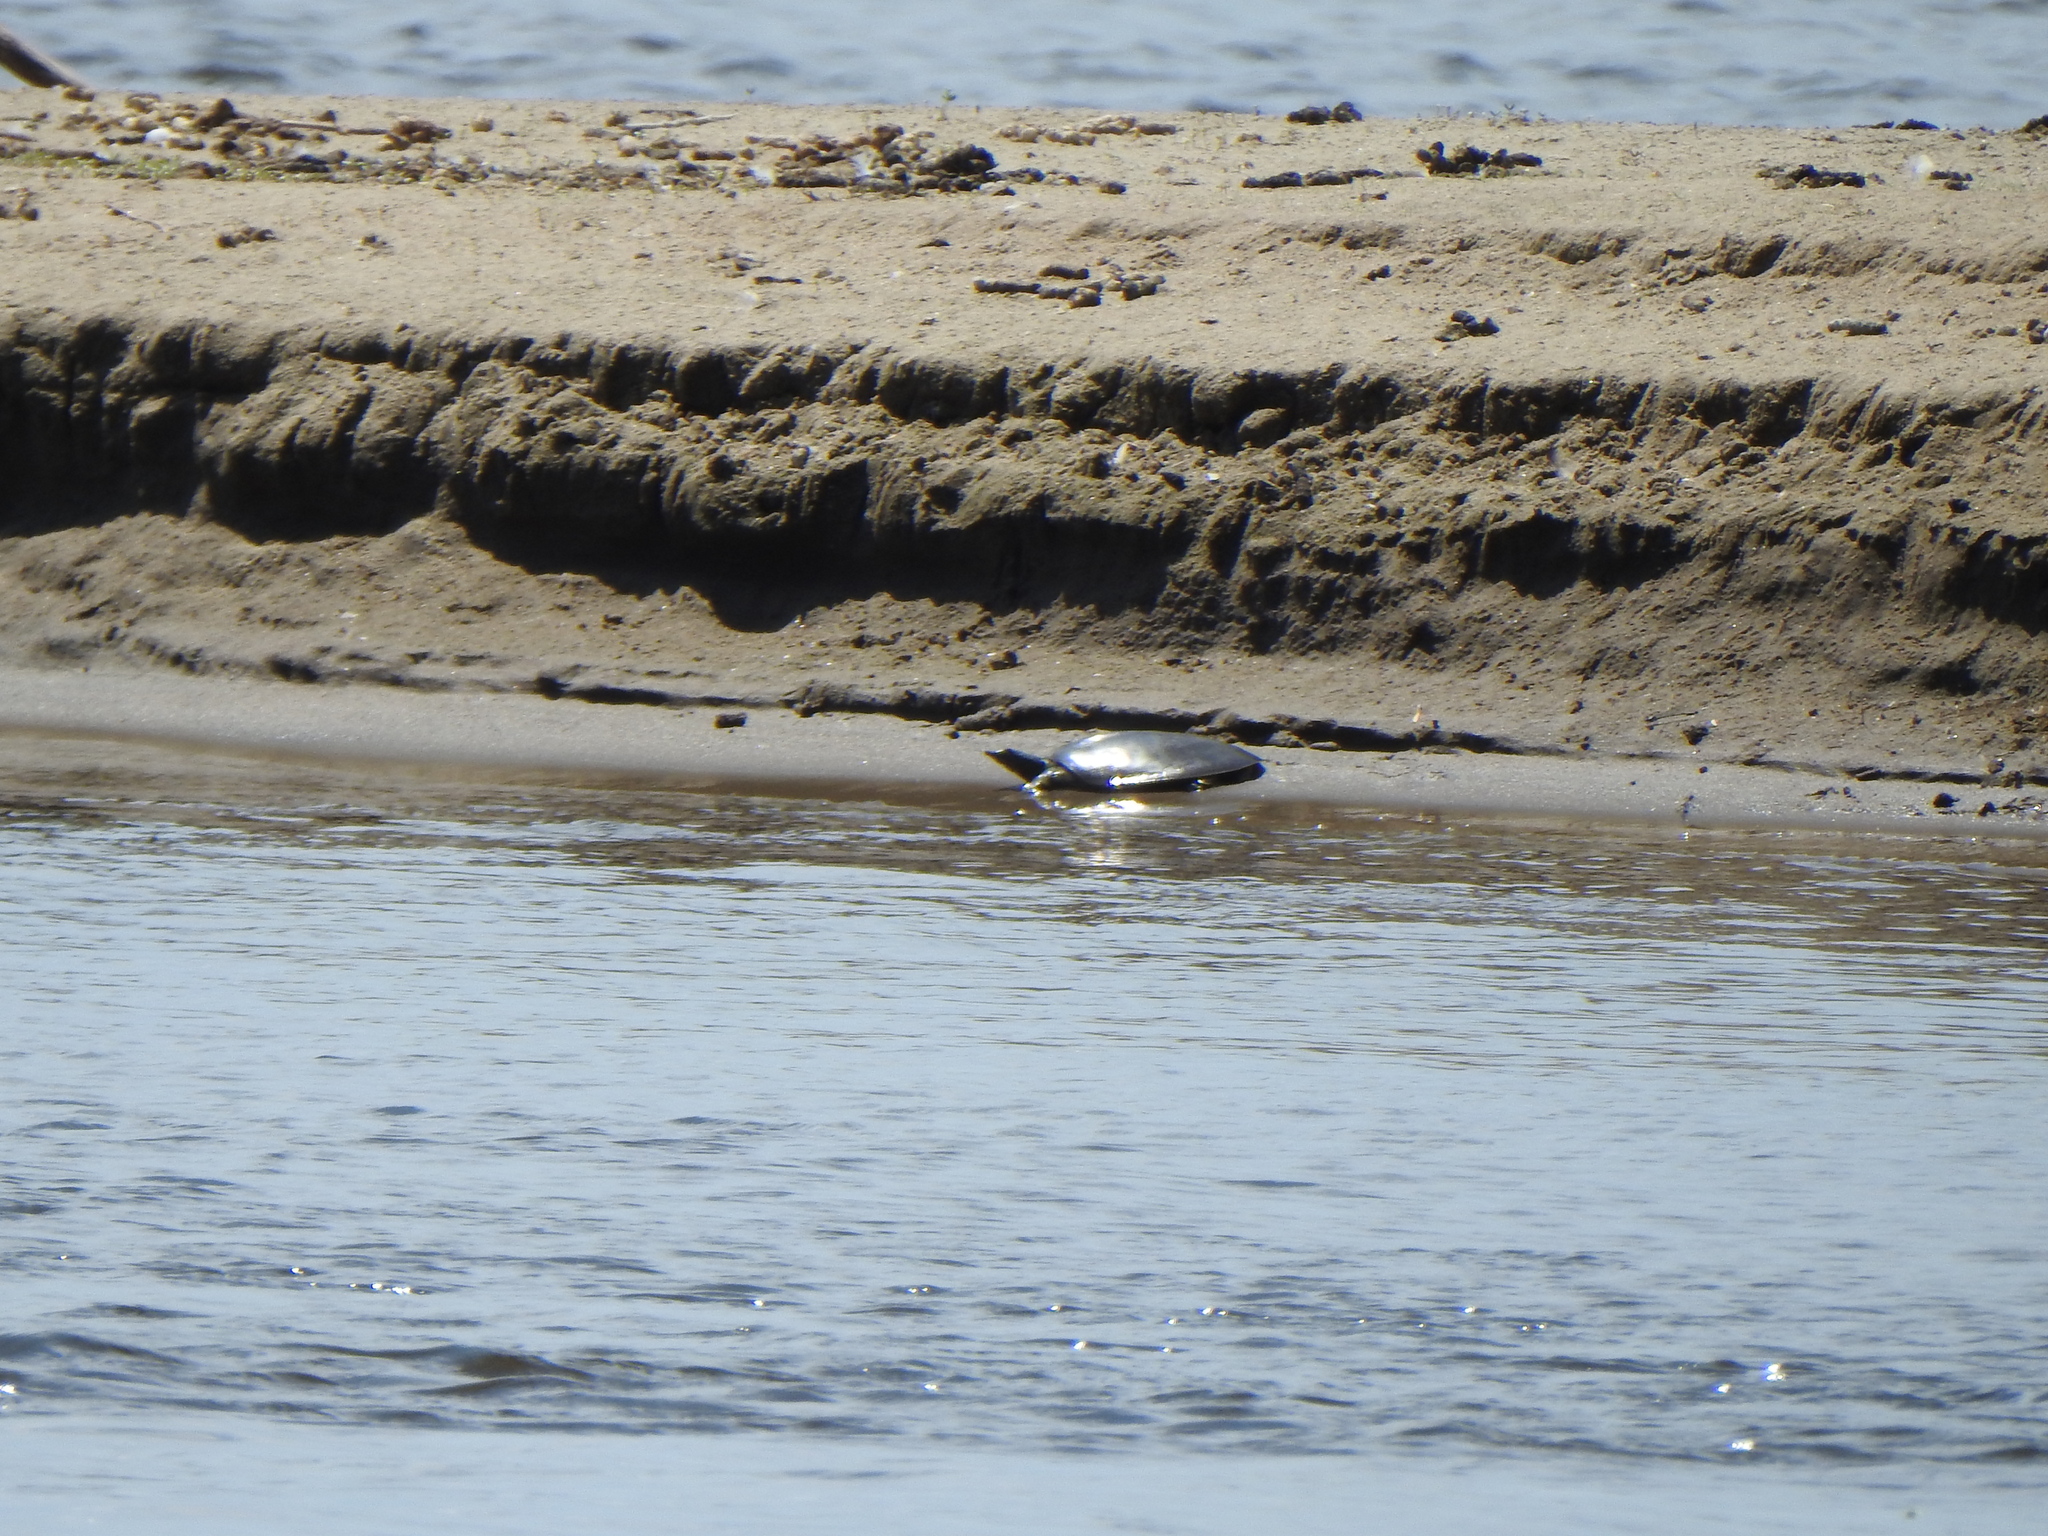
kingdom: Animalia
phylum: Chordata
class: Testudines
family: Trionychidae
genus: Apalone
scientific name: Apalone spinifera
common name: Spiny softshell turtle
